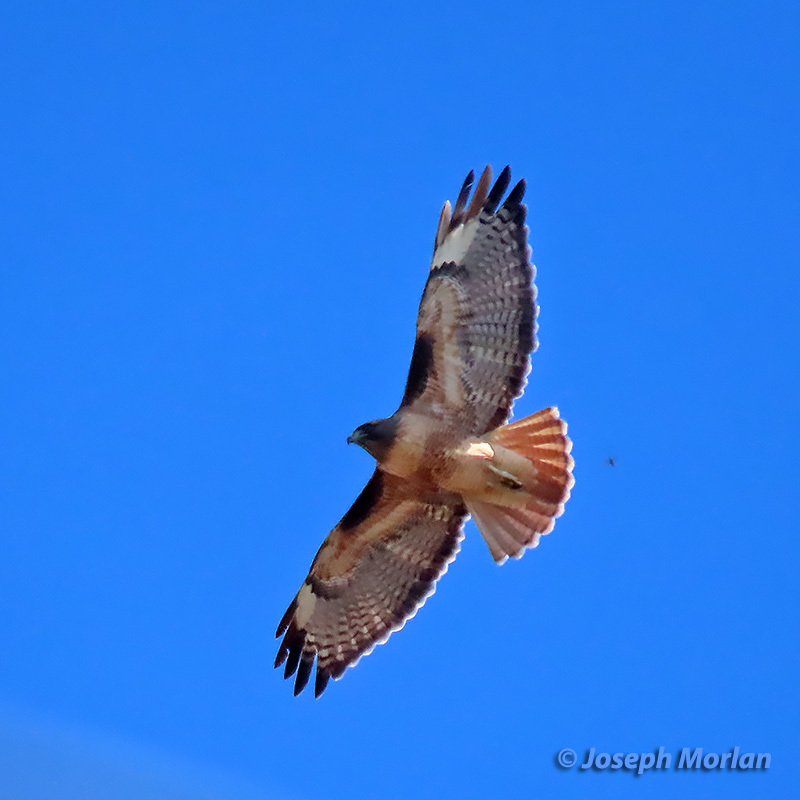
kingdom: Animalia
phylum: Chordata
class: Aves
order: Accipitriformes
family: Accipitridae
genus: Buteo
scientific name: Buteo jamaicensis
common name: Red-tailed hawk
